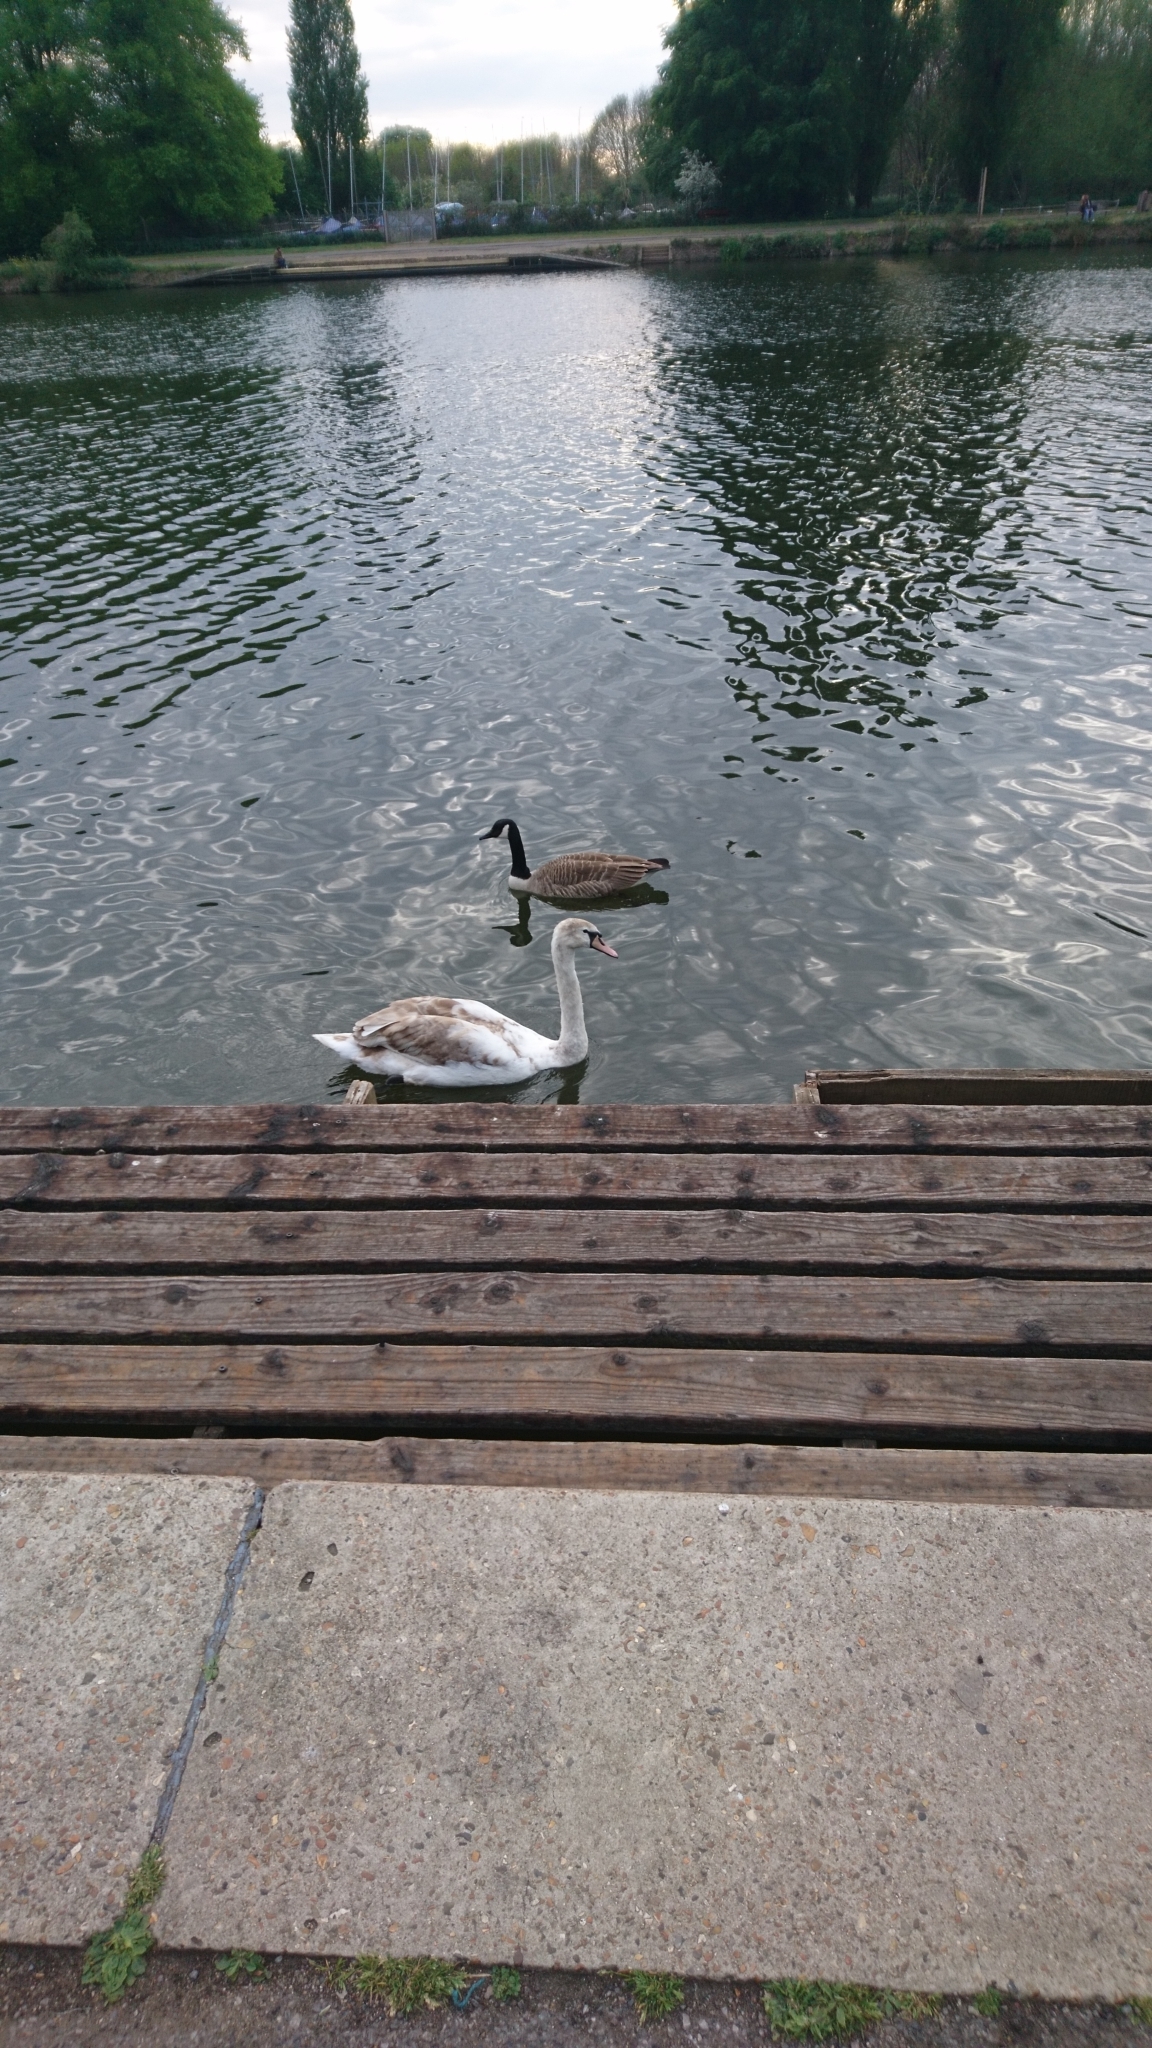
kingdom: Animalia
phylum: Chordata
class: Aves
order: Anseriformes
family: Anatidae
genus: Branta
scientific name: Branta canadensis
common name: Canada goose
